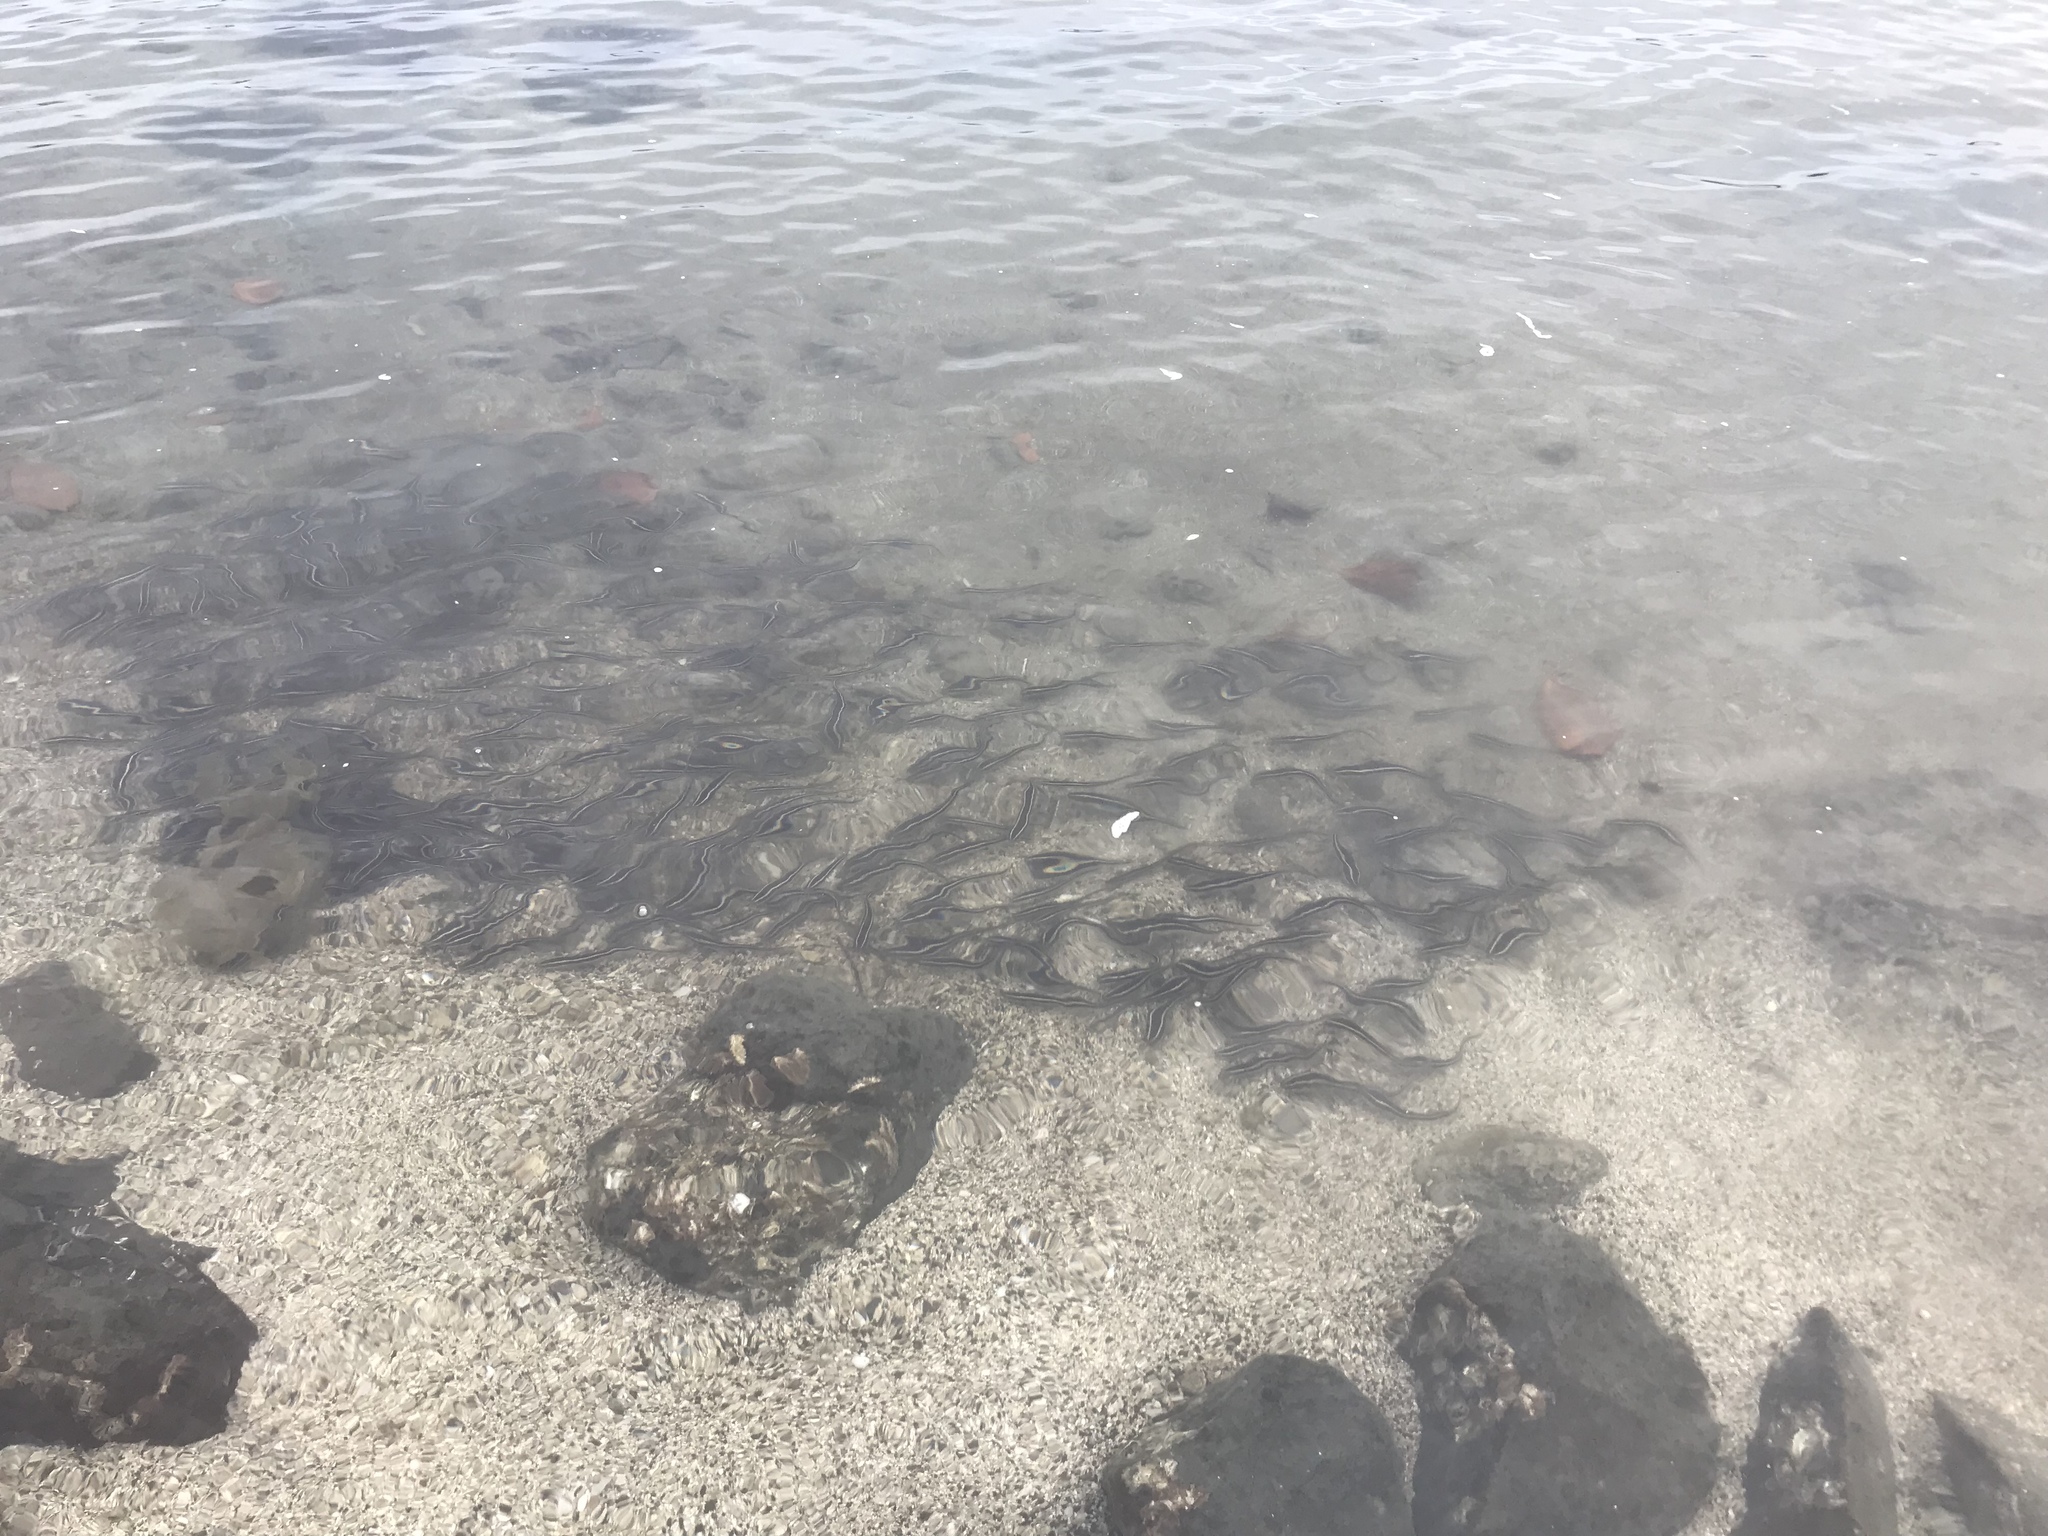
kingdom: Animalia
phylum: Chordata
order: Siluriformes
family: Plotosidae
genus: Plotosus
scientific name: Plotosus lineatus
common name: Striped eel catfish
